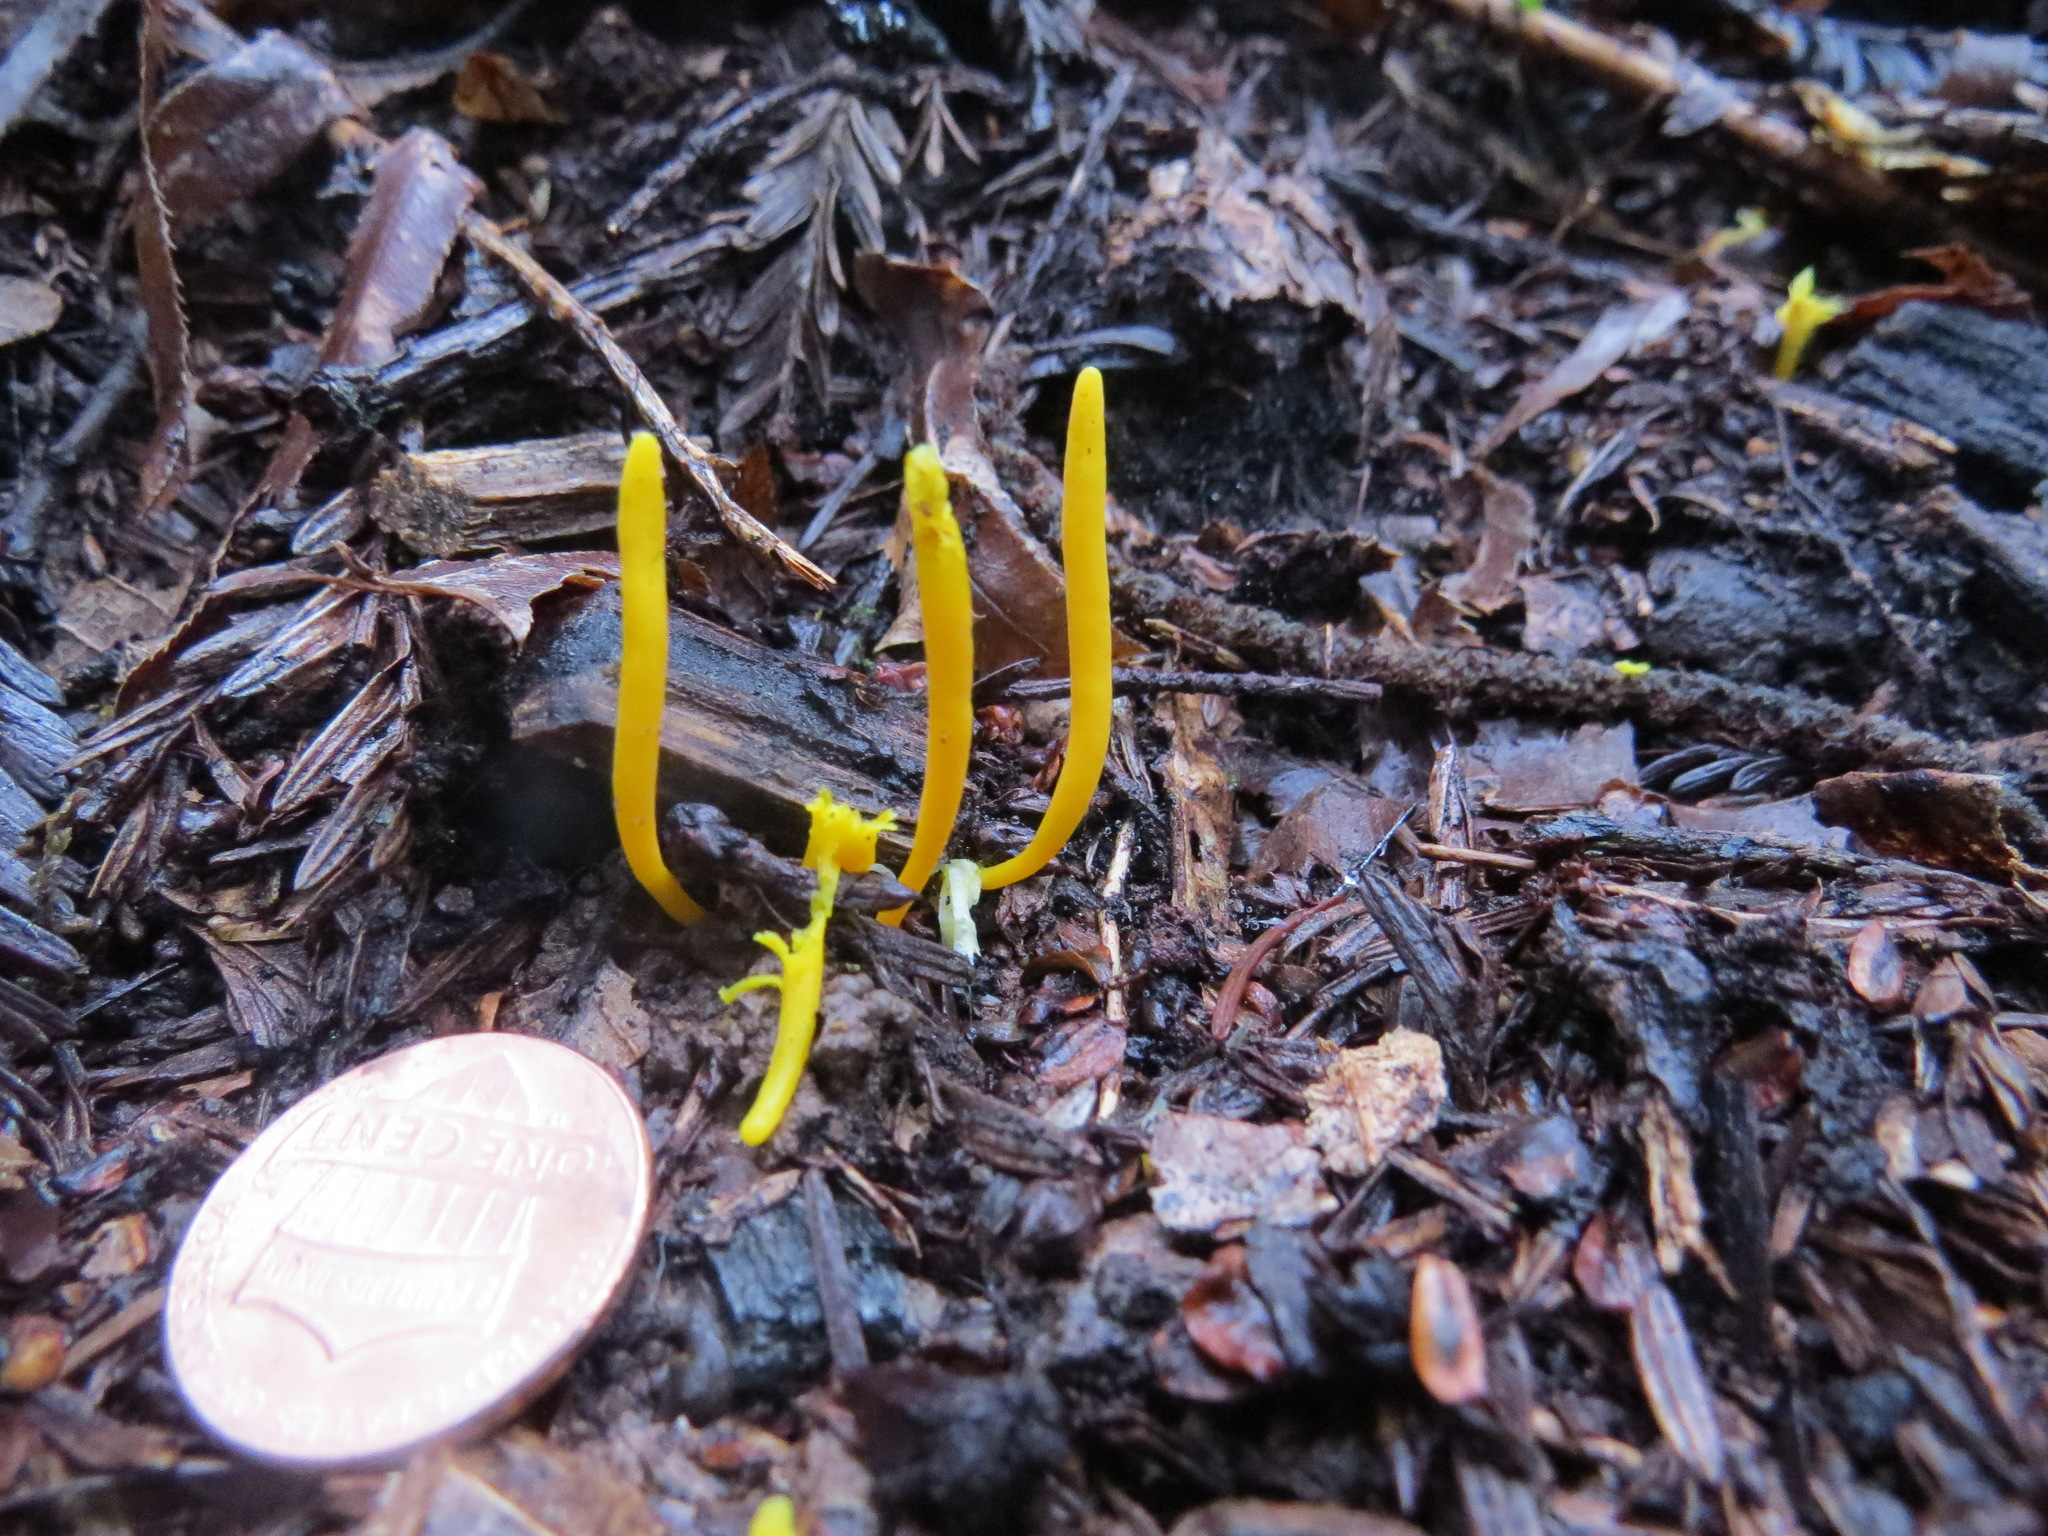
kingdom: Fungi
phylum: Basidiomycota
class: Agaricomycetes
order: Agaricales
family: Clavariaceae
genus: Clavulinopsis
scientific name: Clavulinopsis laeticolor
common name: Handsome club
